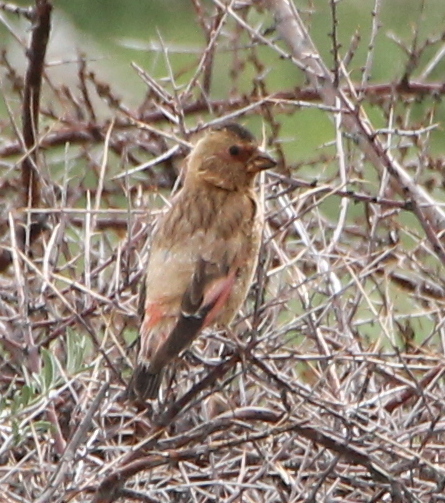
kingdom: Animalia
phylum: Chordata
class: Aves
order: Passeriformes
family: Fringillidae
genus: Rhodopechys
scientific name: Rhodopechys sanguineus
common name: Crimson-winged finch
